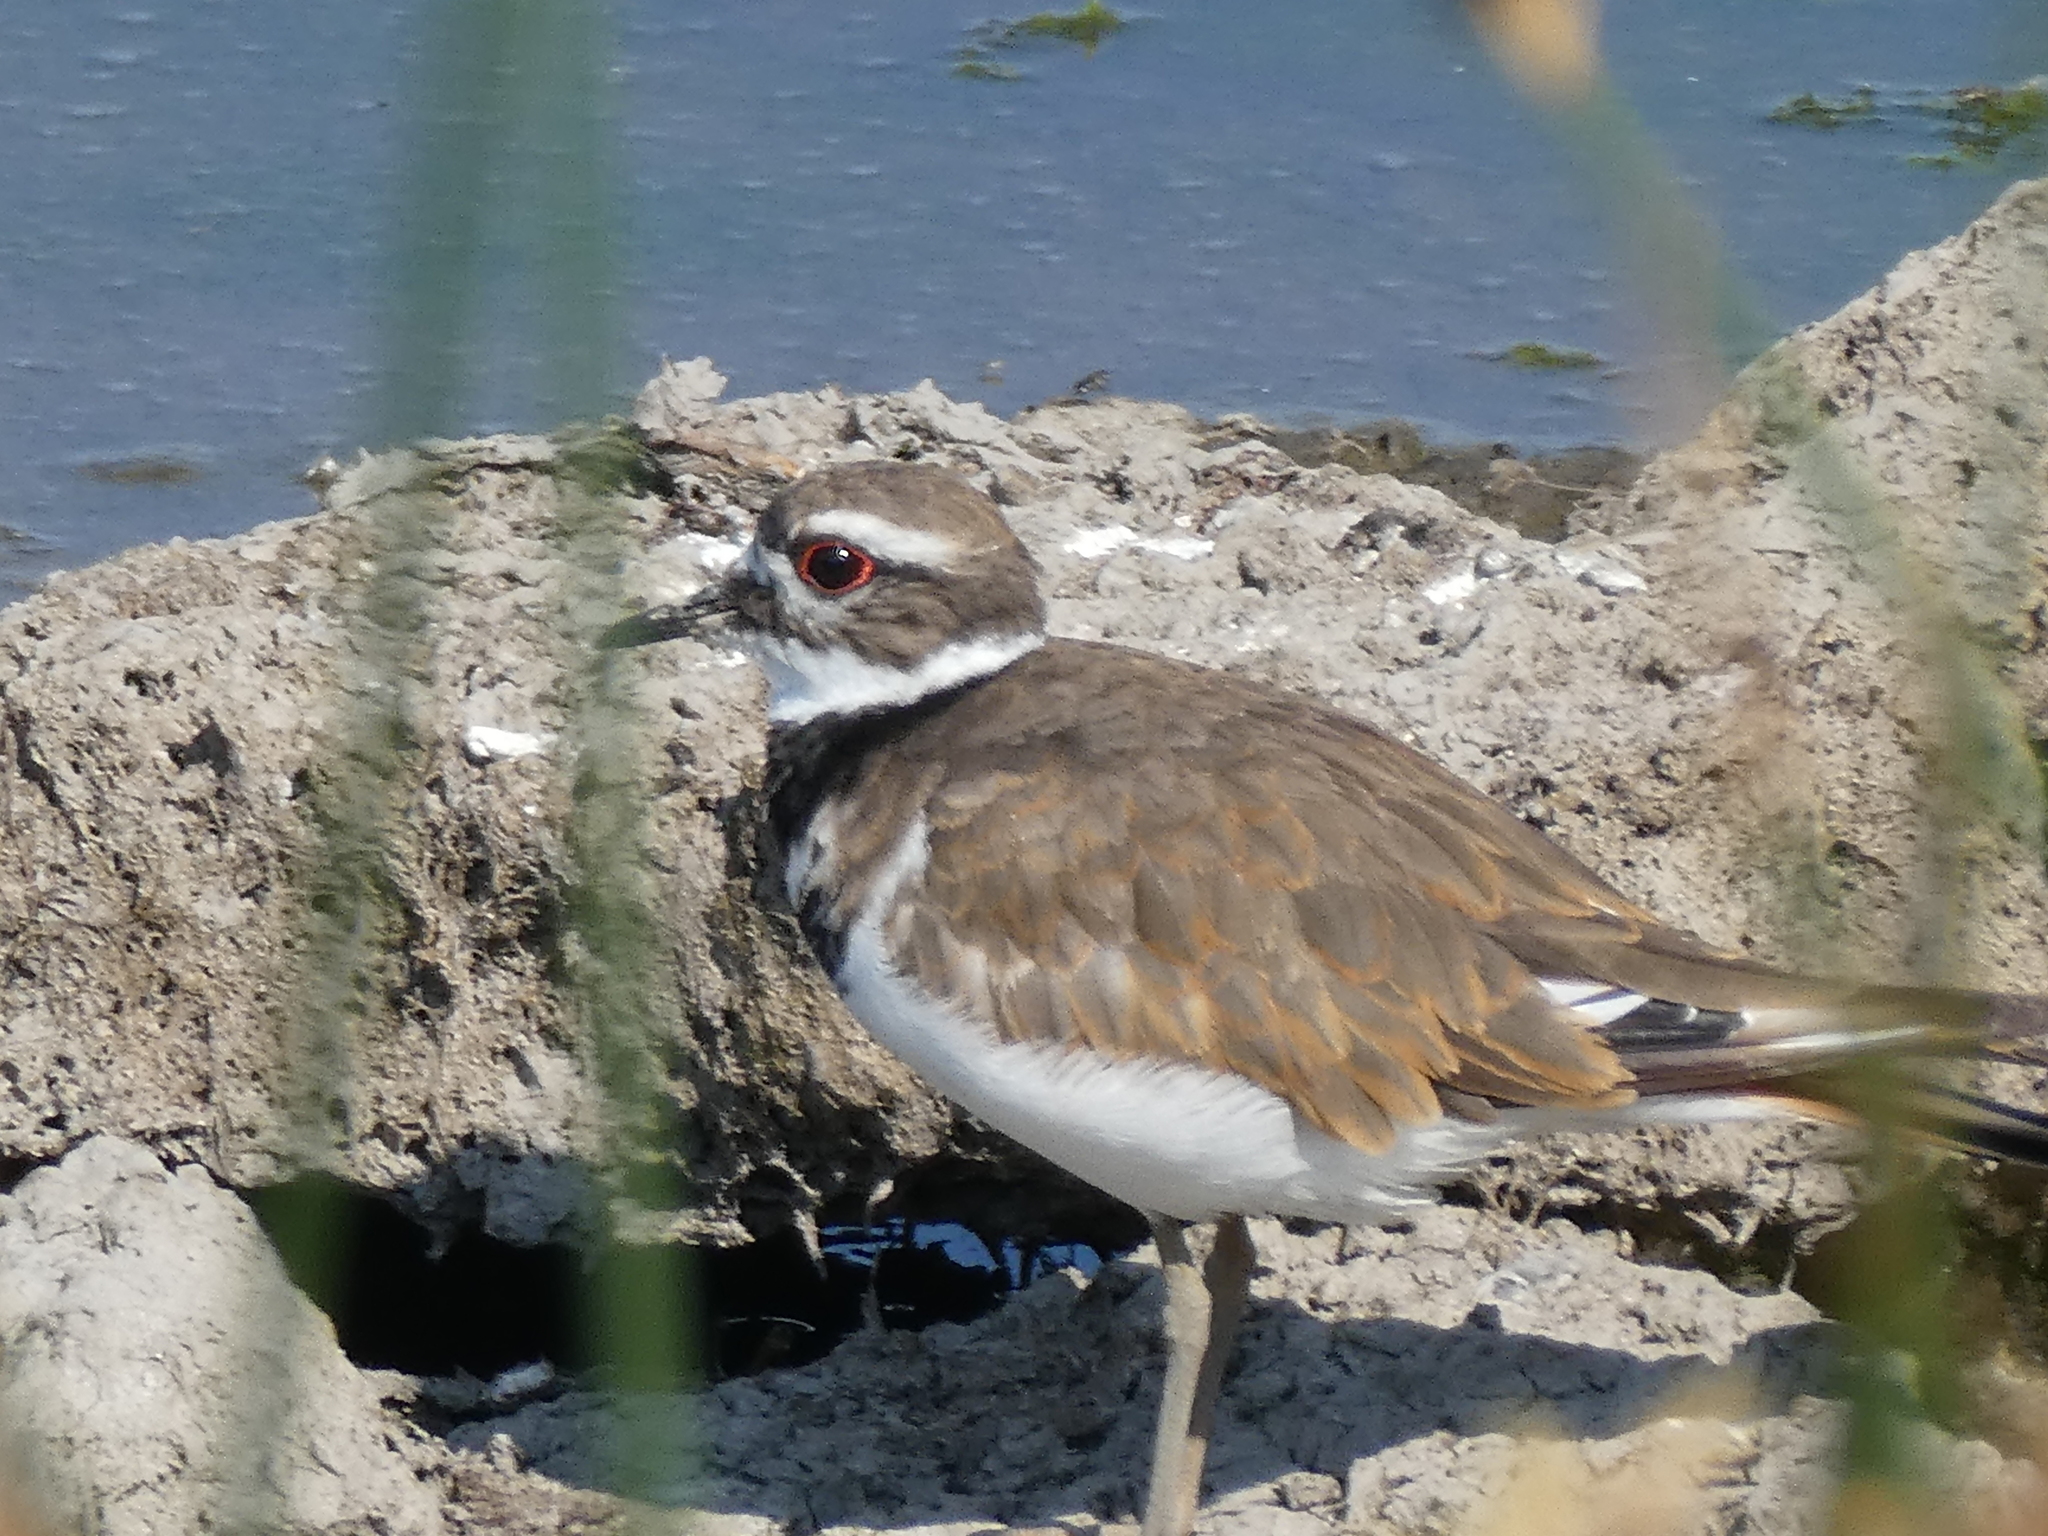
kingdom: Animalia
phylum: Chordata
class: Aves
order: Charadriiformes
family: Charadriidae
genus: Charadrius
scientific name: Charadrius vociferus
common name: Killdeer
